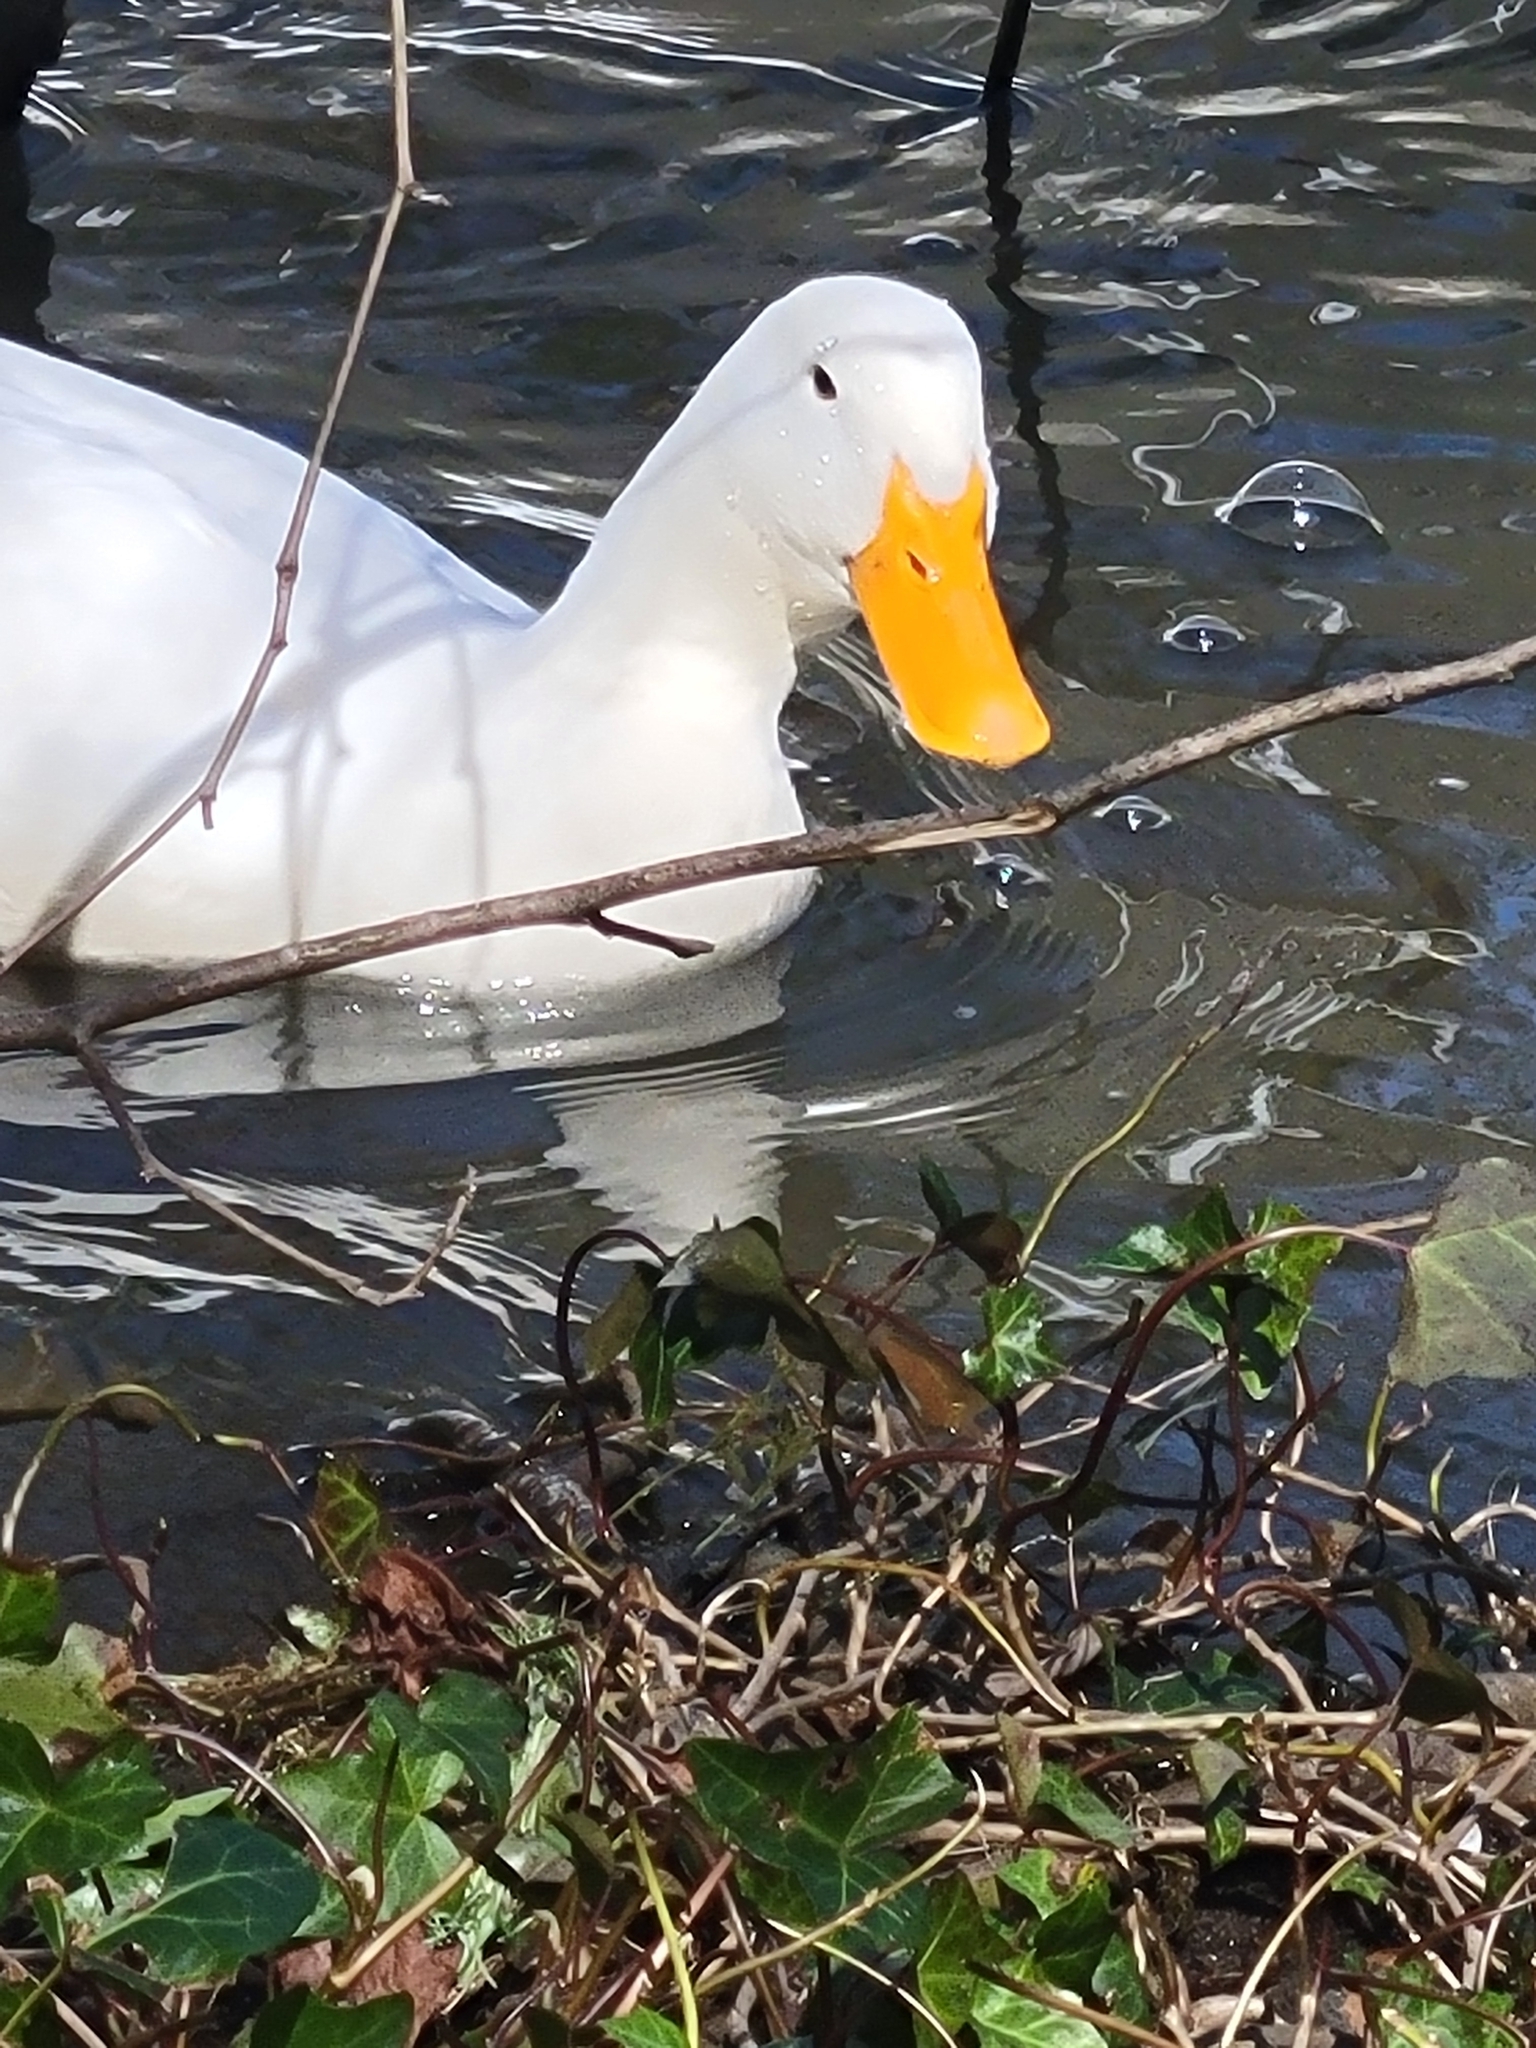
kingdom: Animalia
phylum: Chordata
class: Aves
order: Anseriformes
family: Anatidae
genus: Anas
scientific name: Anas platyrhynchos
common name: Mallard
